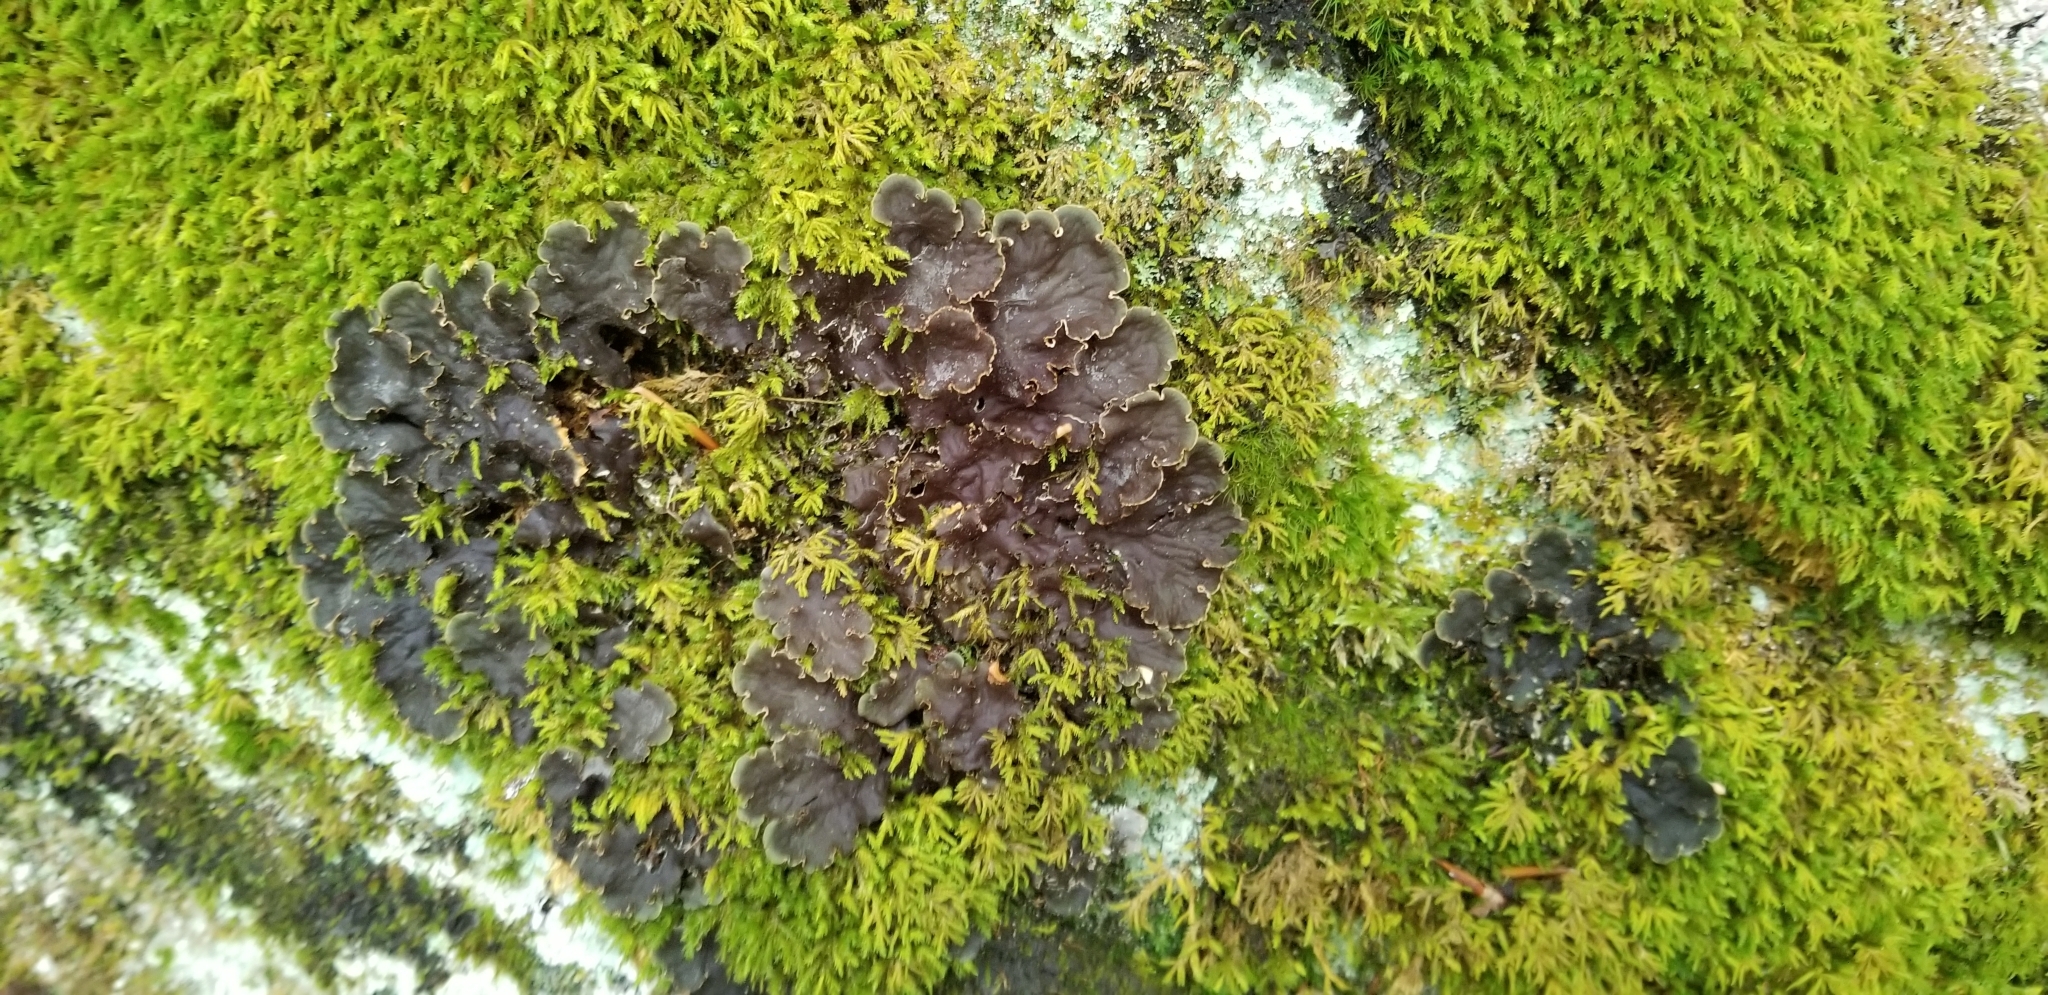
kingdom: Fungi
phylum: Ascomycota
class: Lecanoromycetes
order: Peltigerales
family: Peltigeraceae
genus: Peltigera
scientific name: Peltigera praetextata
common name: Scaly dog-lichen
